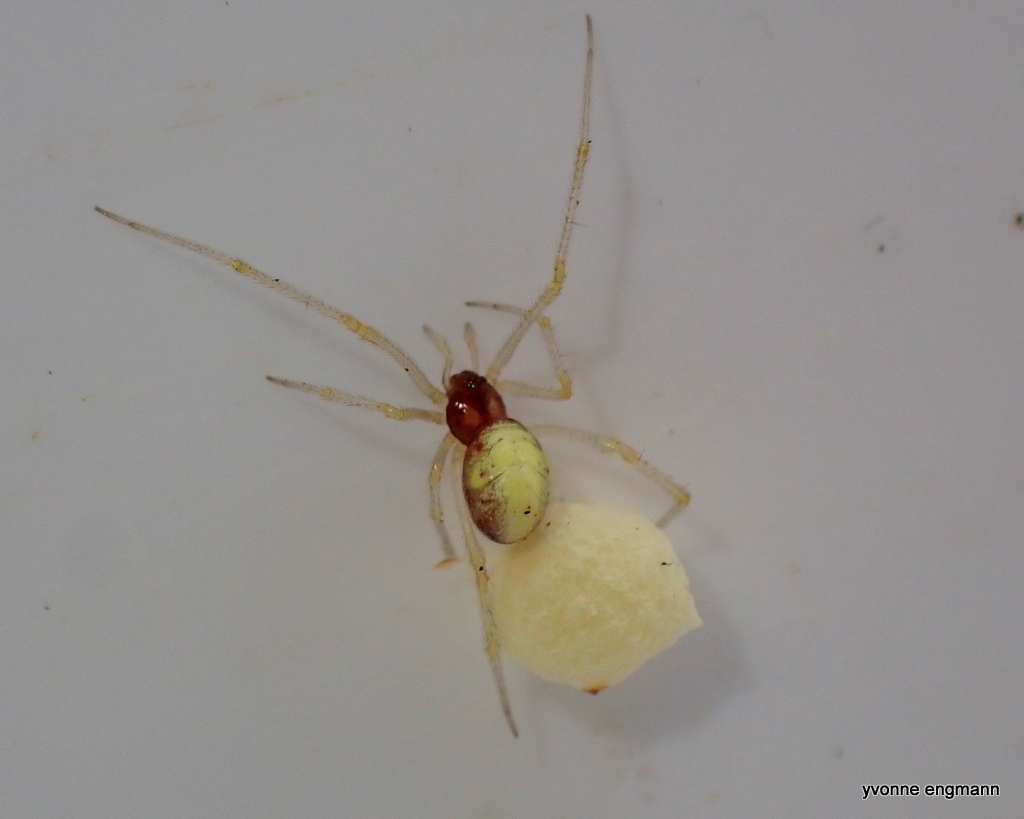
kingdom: Animalia
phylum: Arthropoda
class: Arachnida
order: Araneae
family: Theridiidae
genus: Neottiura
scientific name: Neottiura bimaculata
